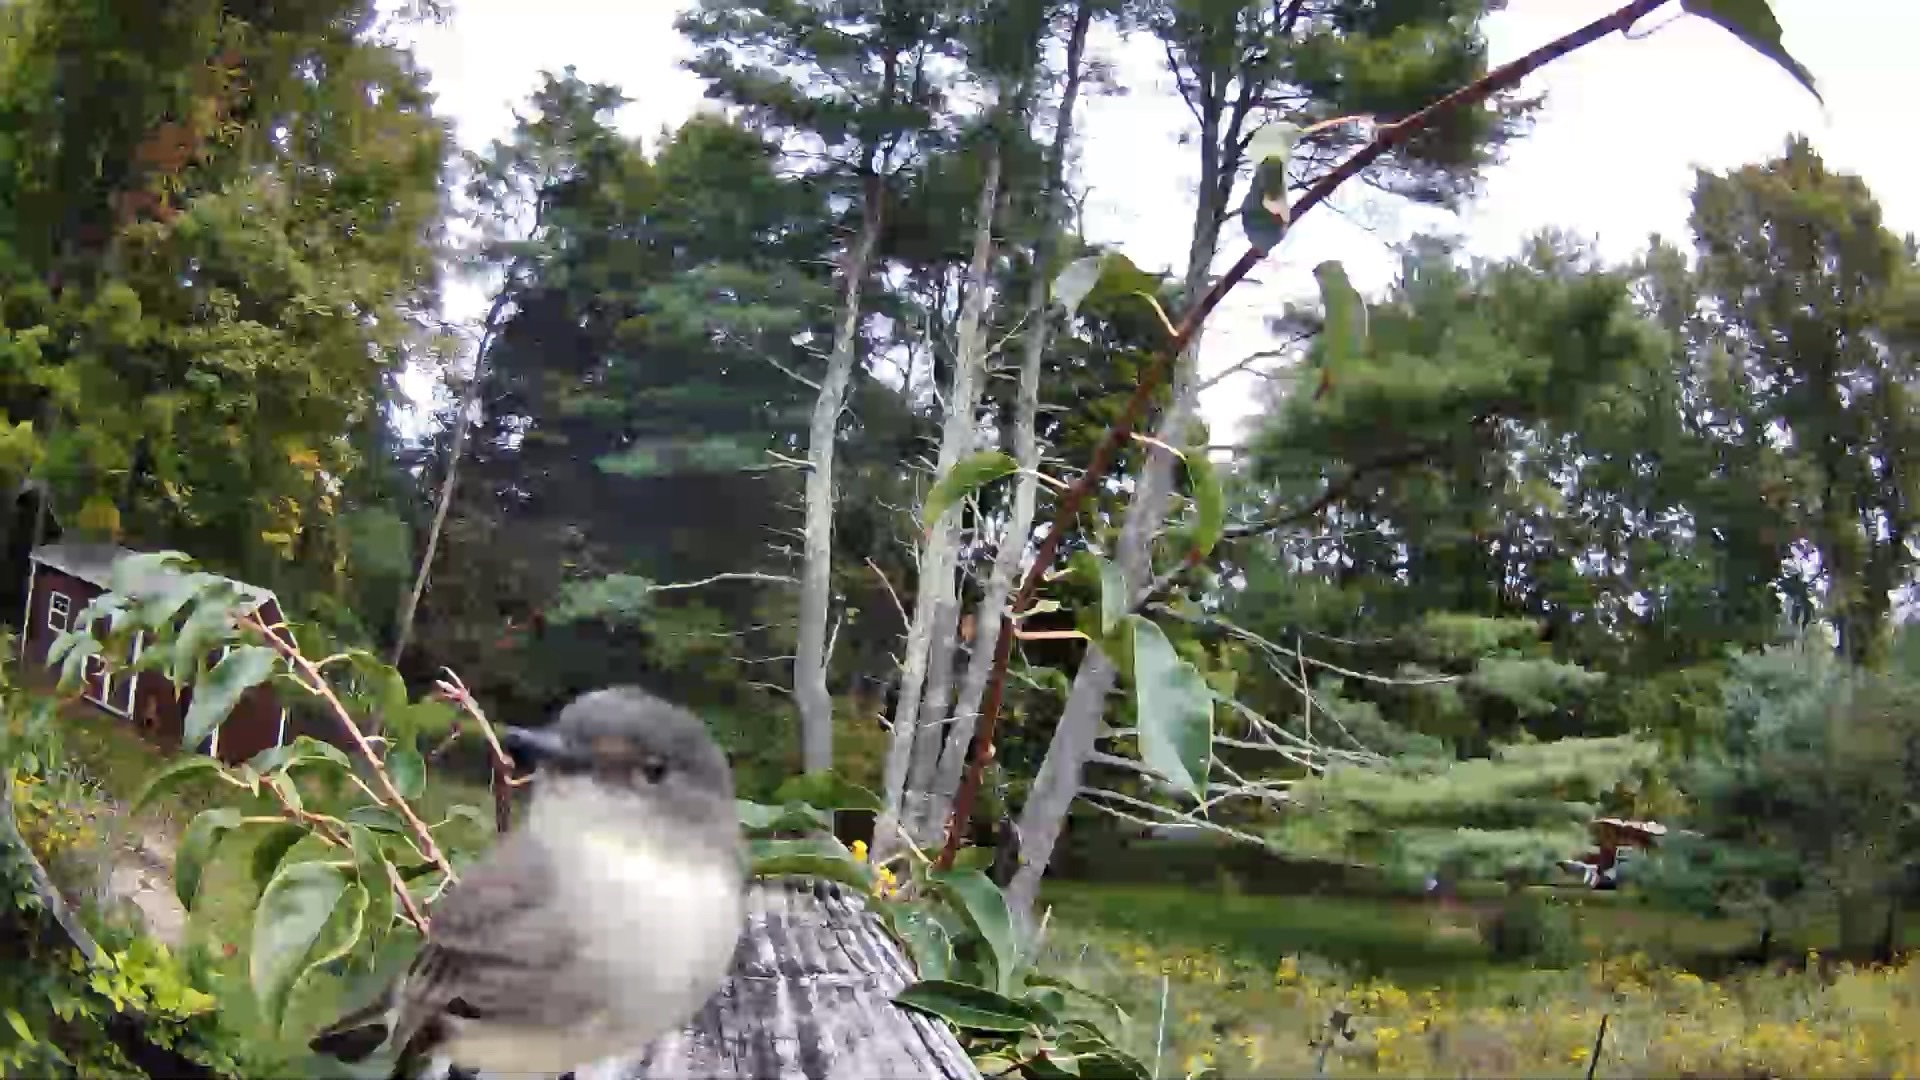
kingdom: Animalia
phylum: Chordata
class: Aves
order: Passeriformes
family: Tyrannidae
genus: Sayornis
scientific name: Sayornis phoebe
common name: Eastern phoebe
